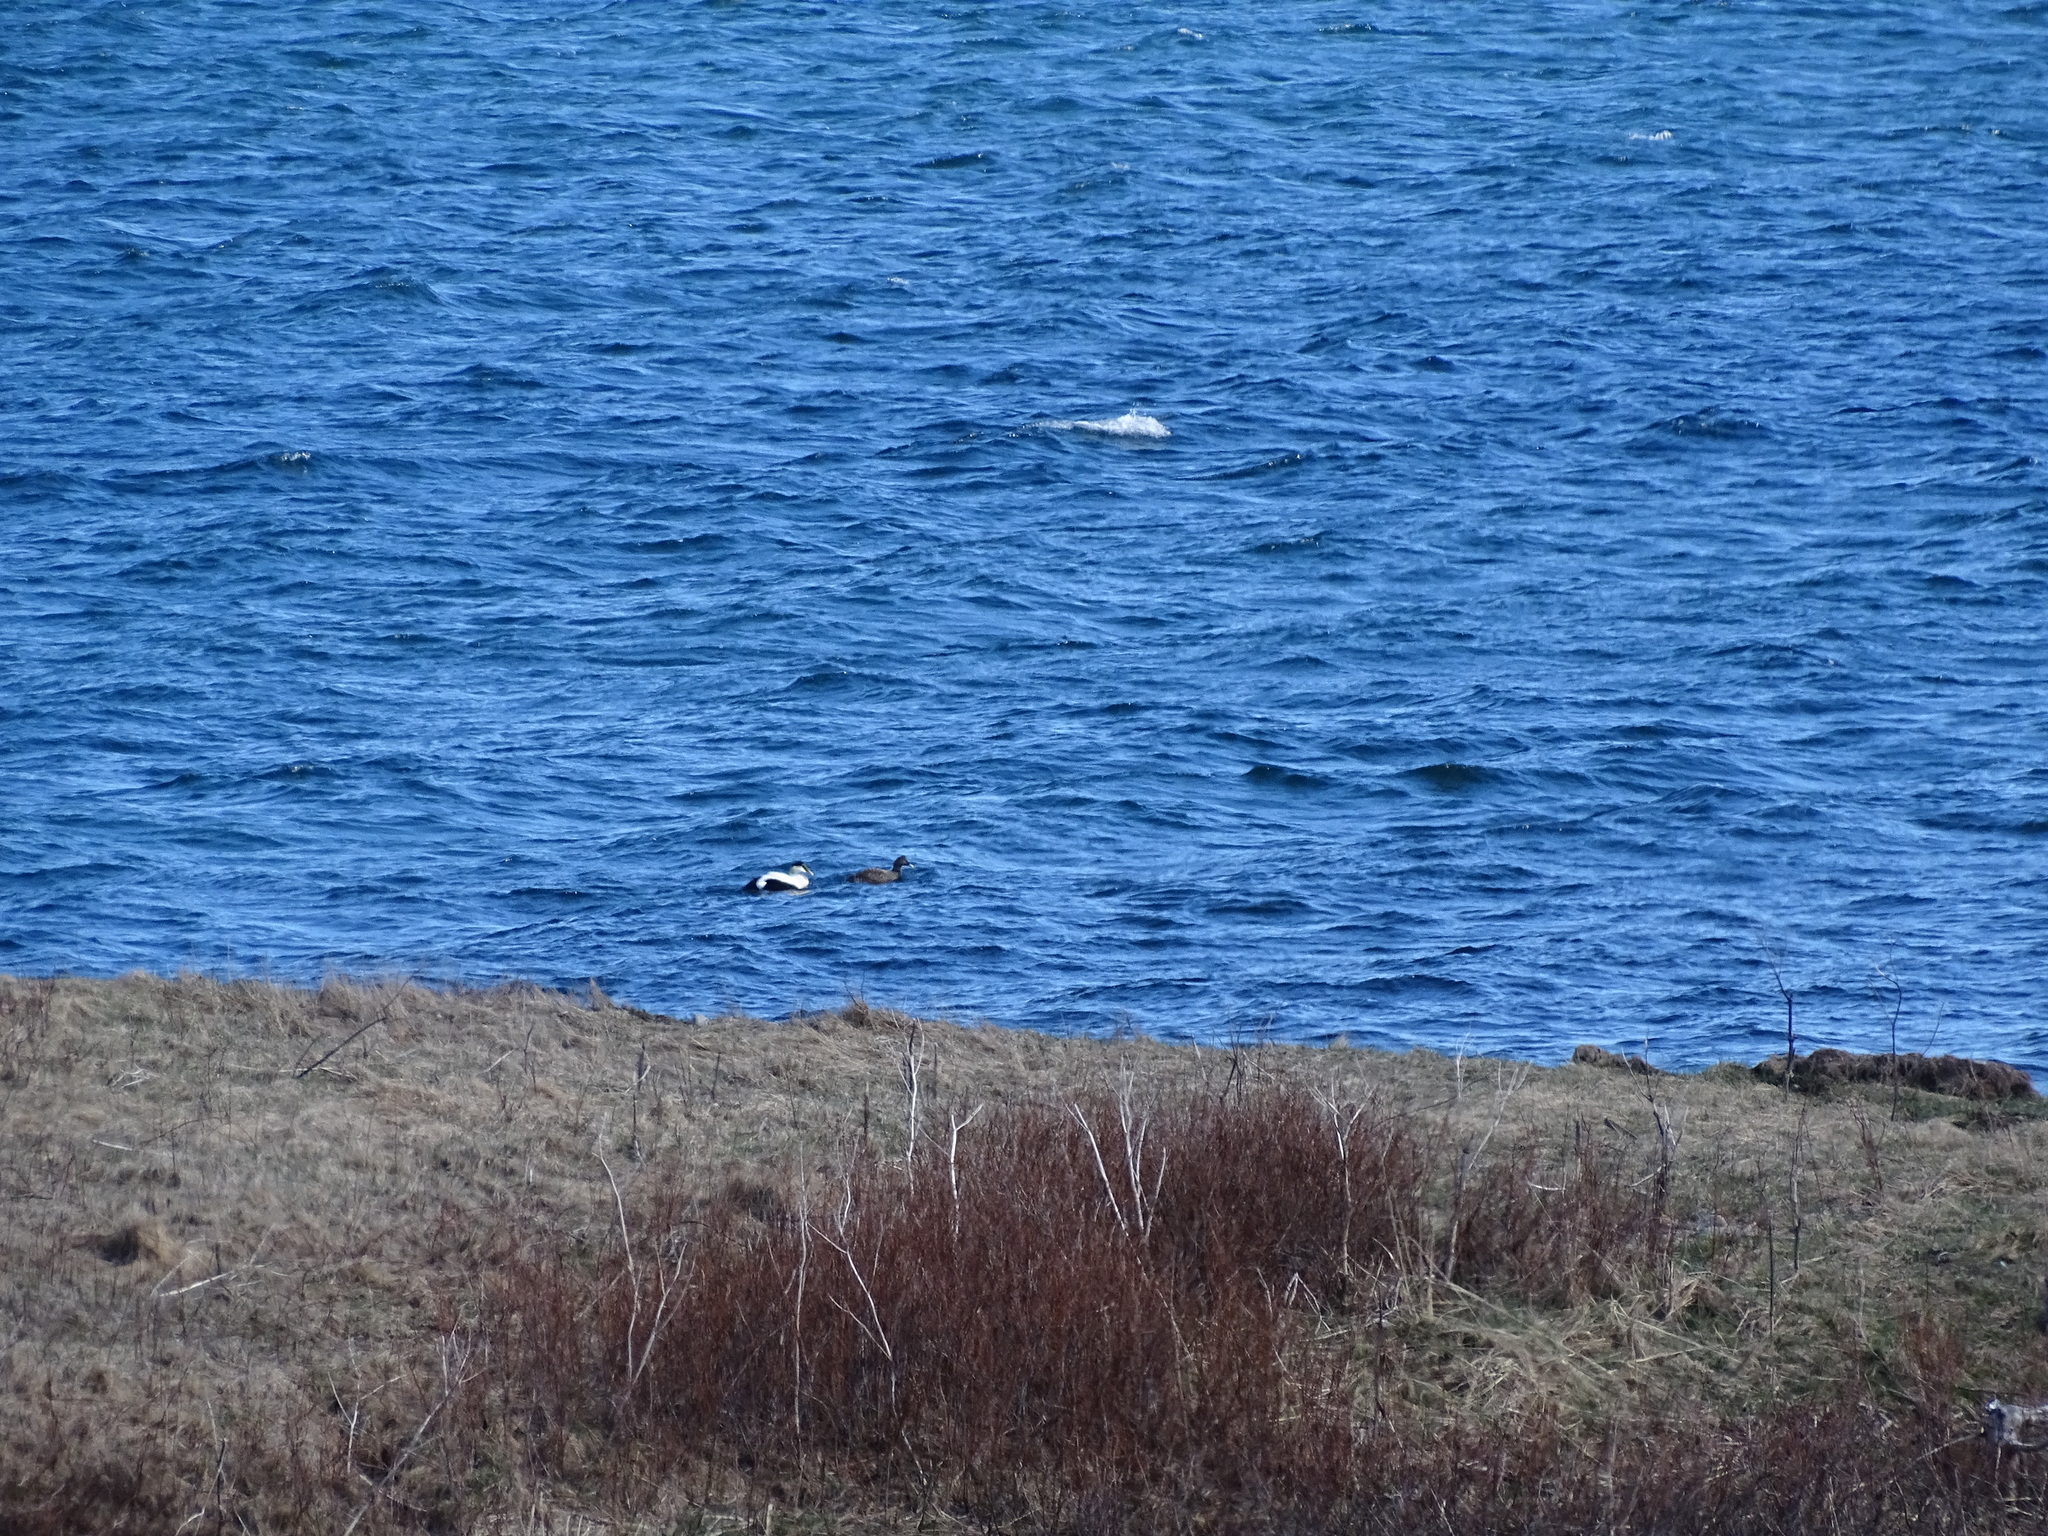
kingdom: Animalia
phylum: Chordata
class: Aves
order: Anseriformes
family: Anatidae
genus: Somateria
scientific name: Somateria mollissima
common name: Common eider
